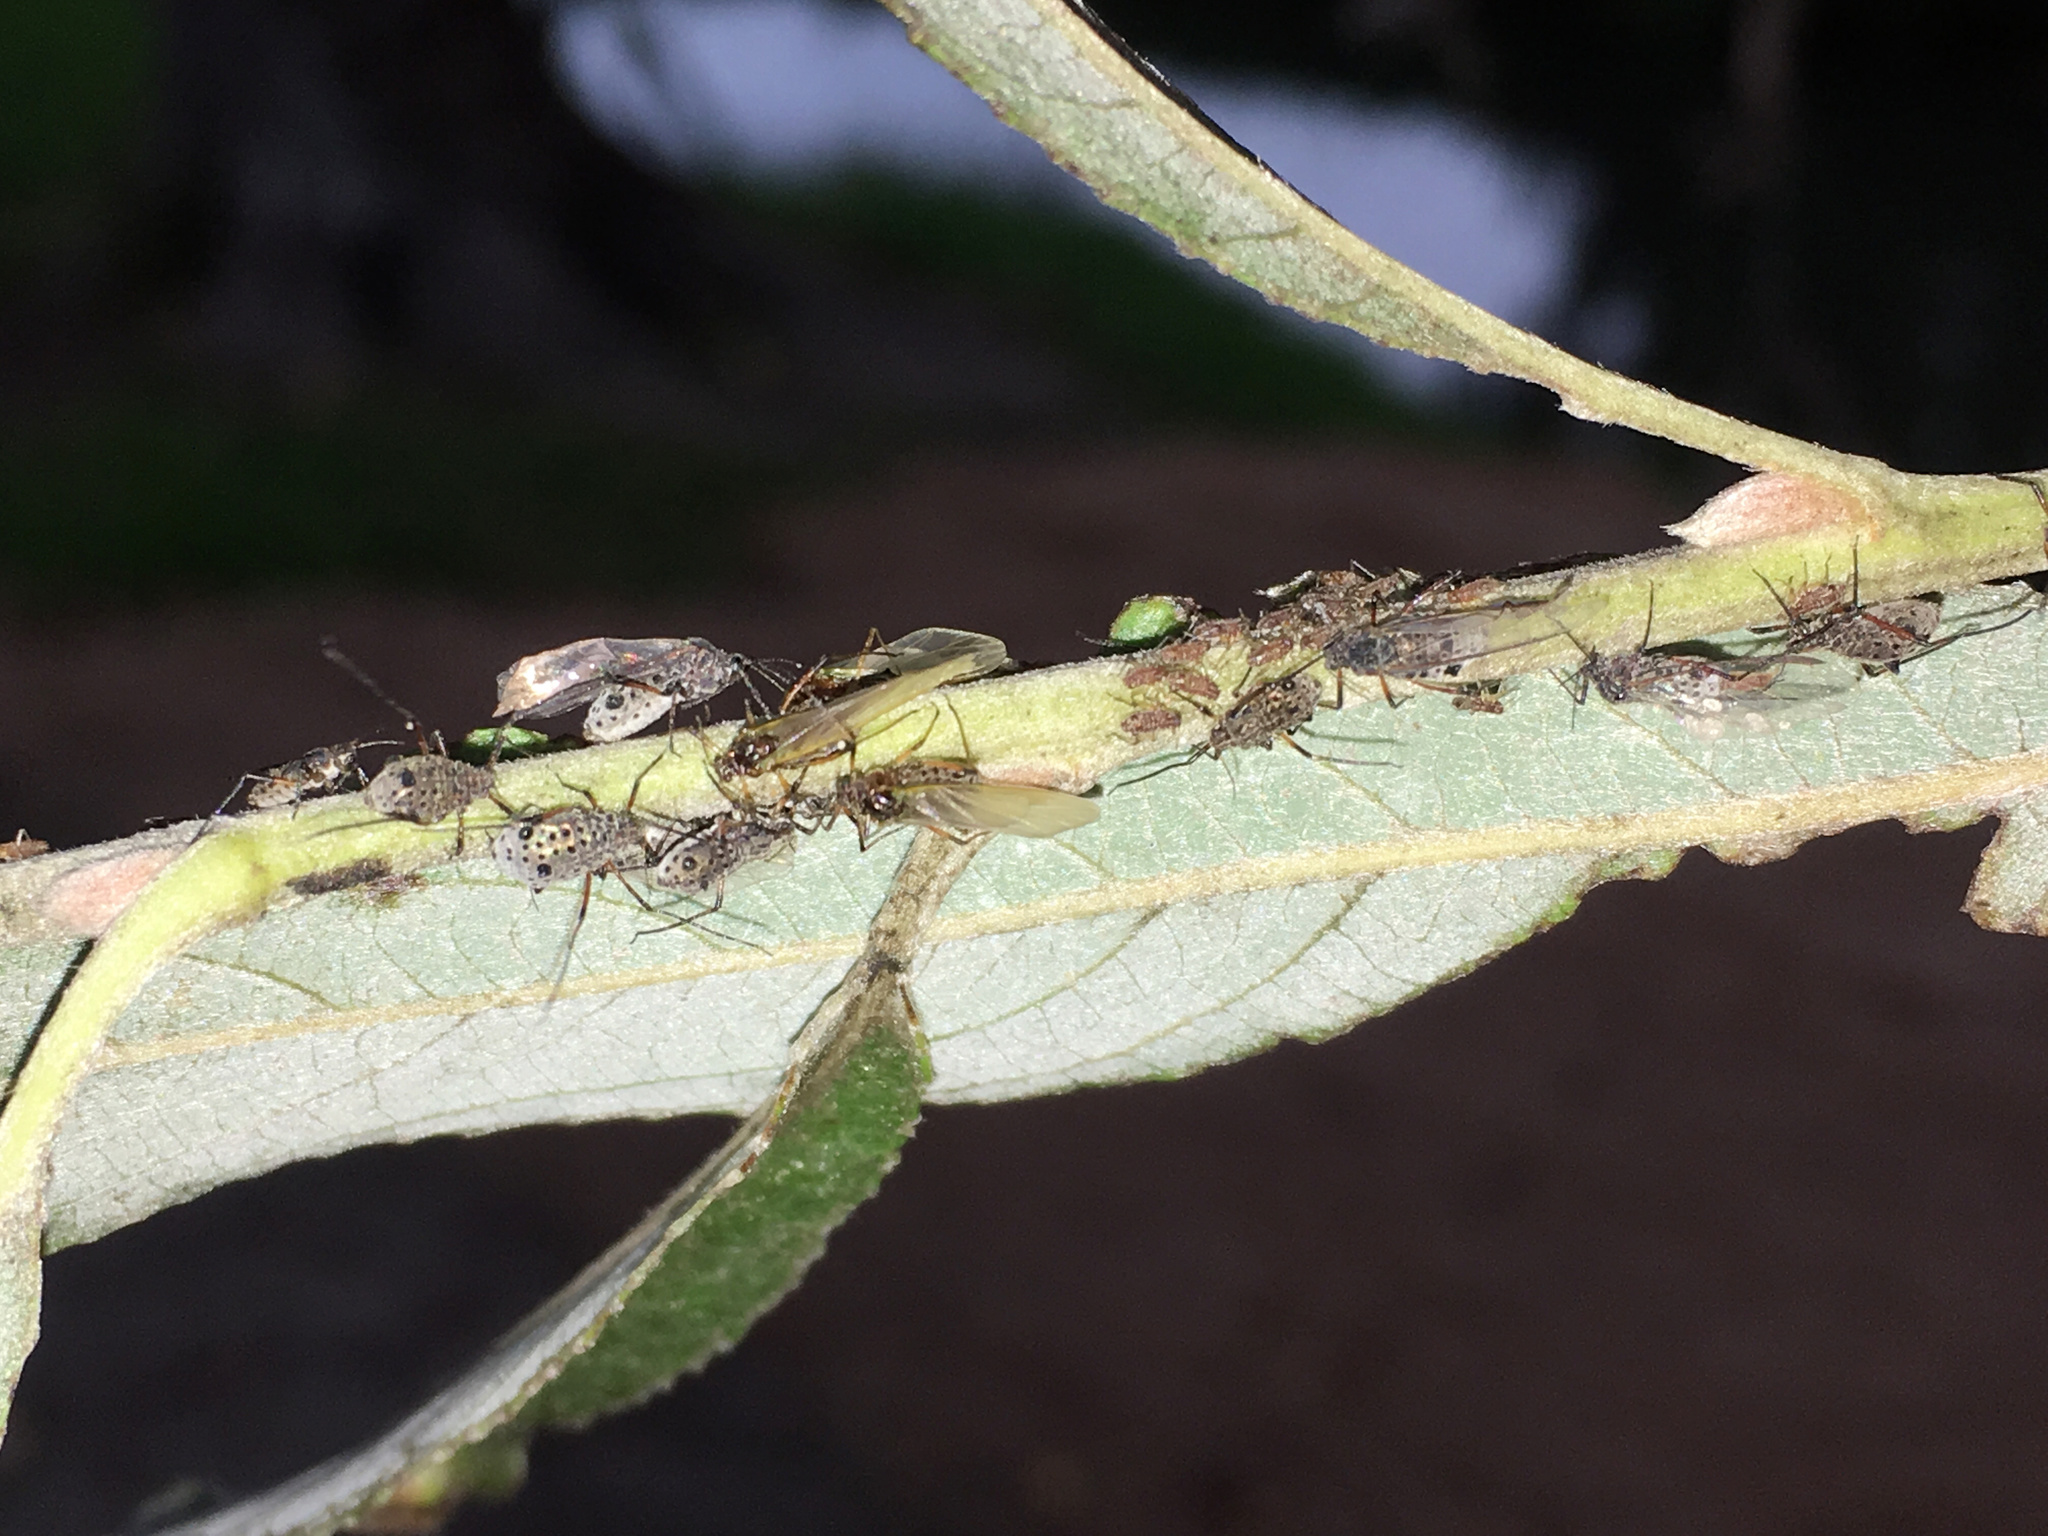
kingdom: Animalia
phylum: Arthropoda
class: Insecta
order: Hemiptera
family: Aphididae
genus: Tuberolachnus
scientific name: Tuberolachnus salignus
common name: Giant willow aphid
